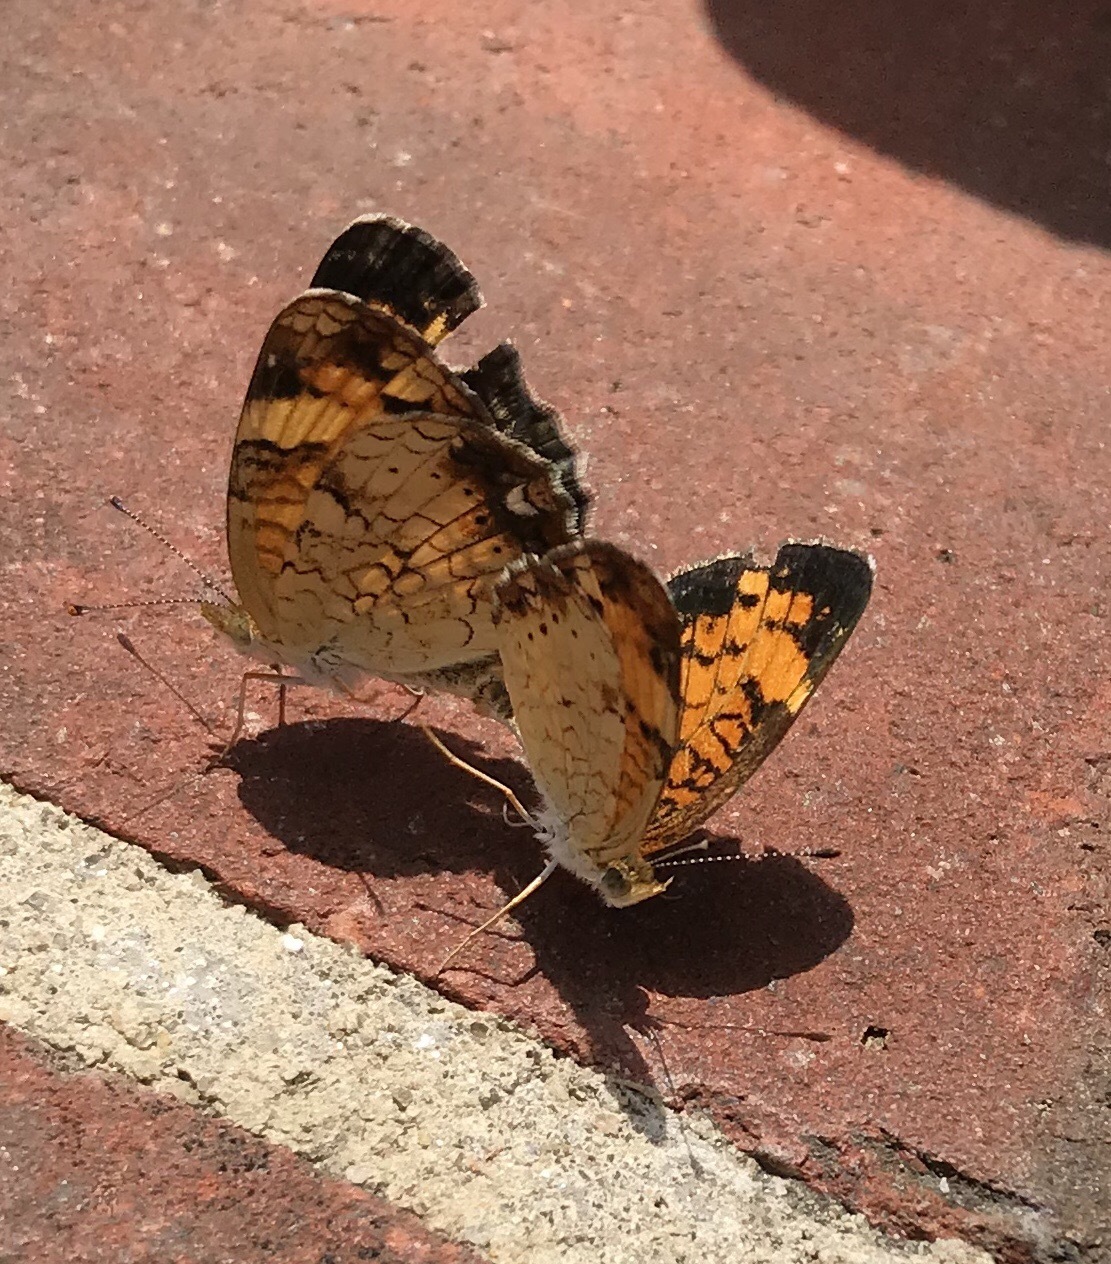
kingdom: Animalia
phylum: Arthropoda
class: Insecta
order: Lepidoptera
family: Nymphalidae
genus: Phyciodes
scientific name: Phyciodes tharos
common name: Pearl crescent
